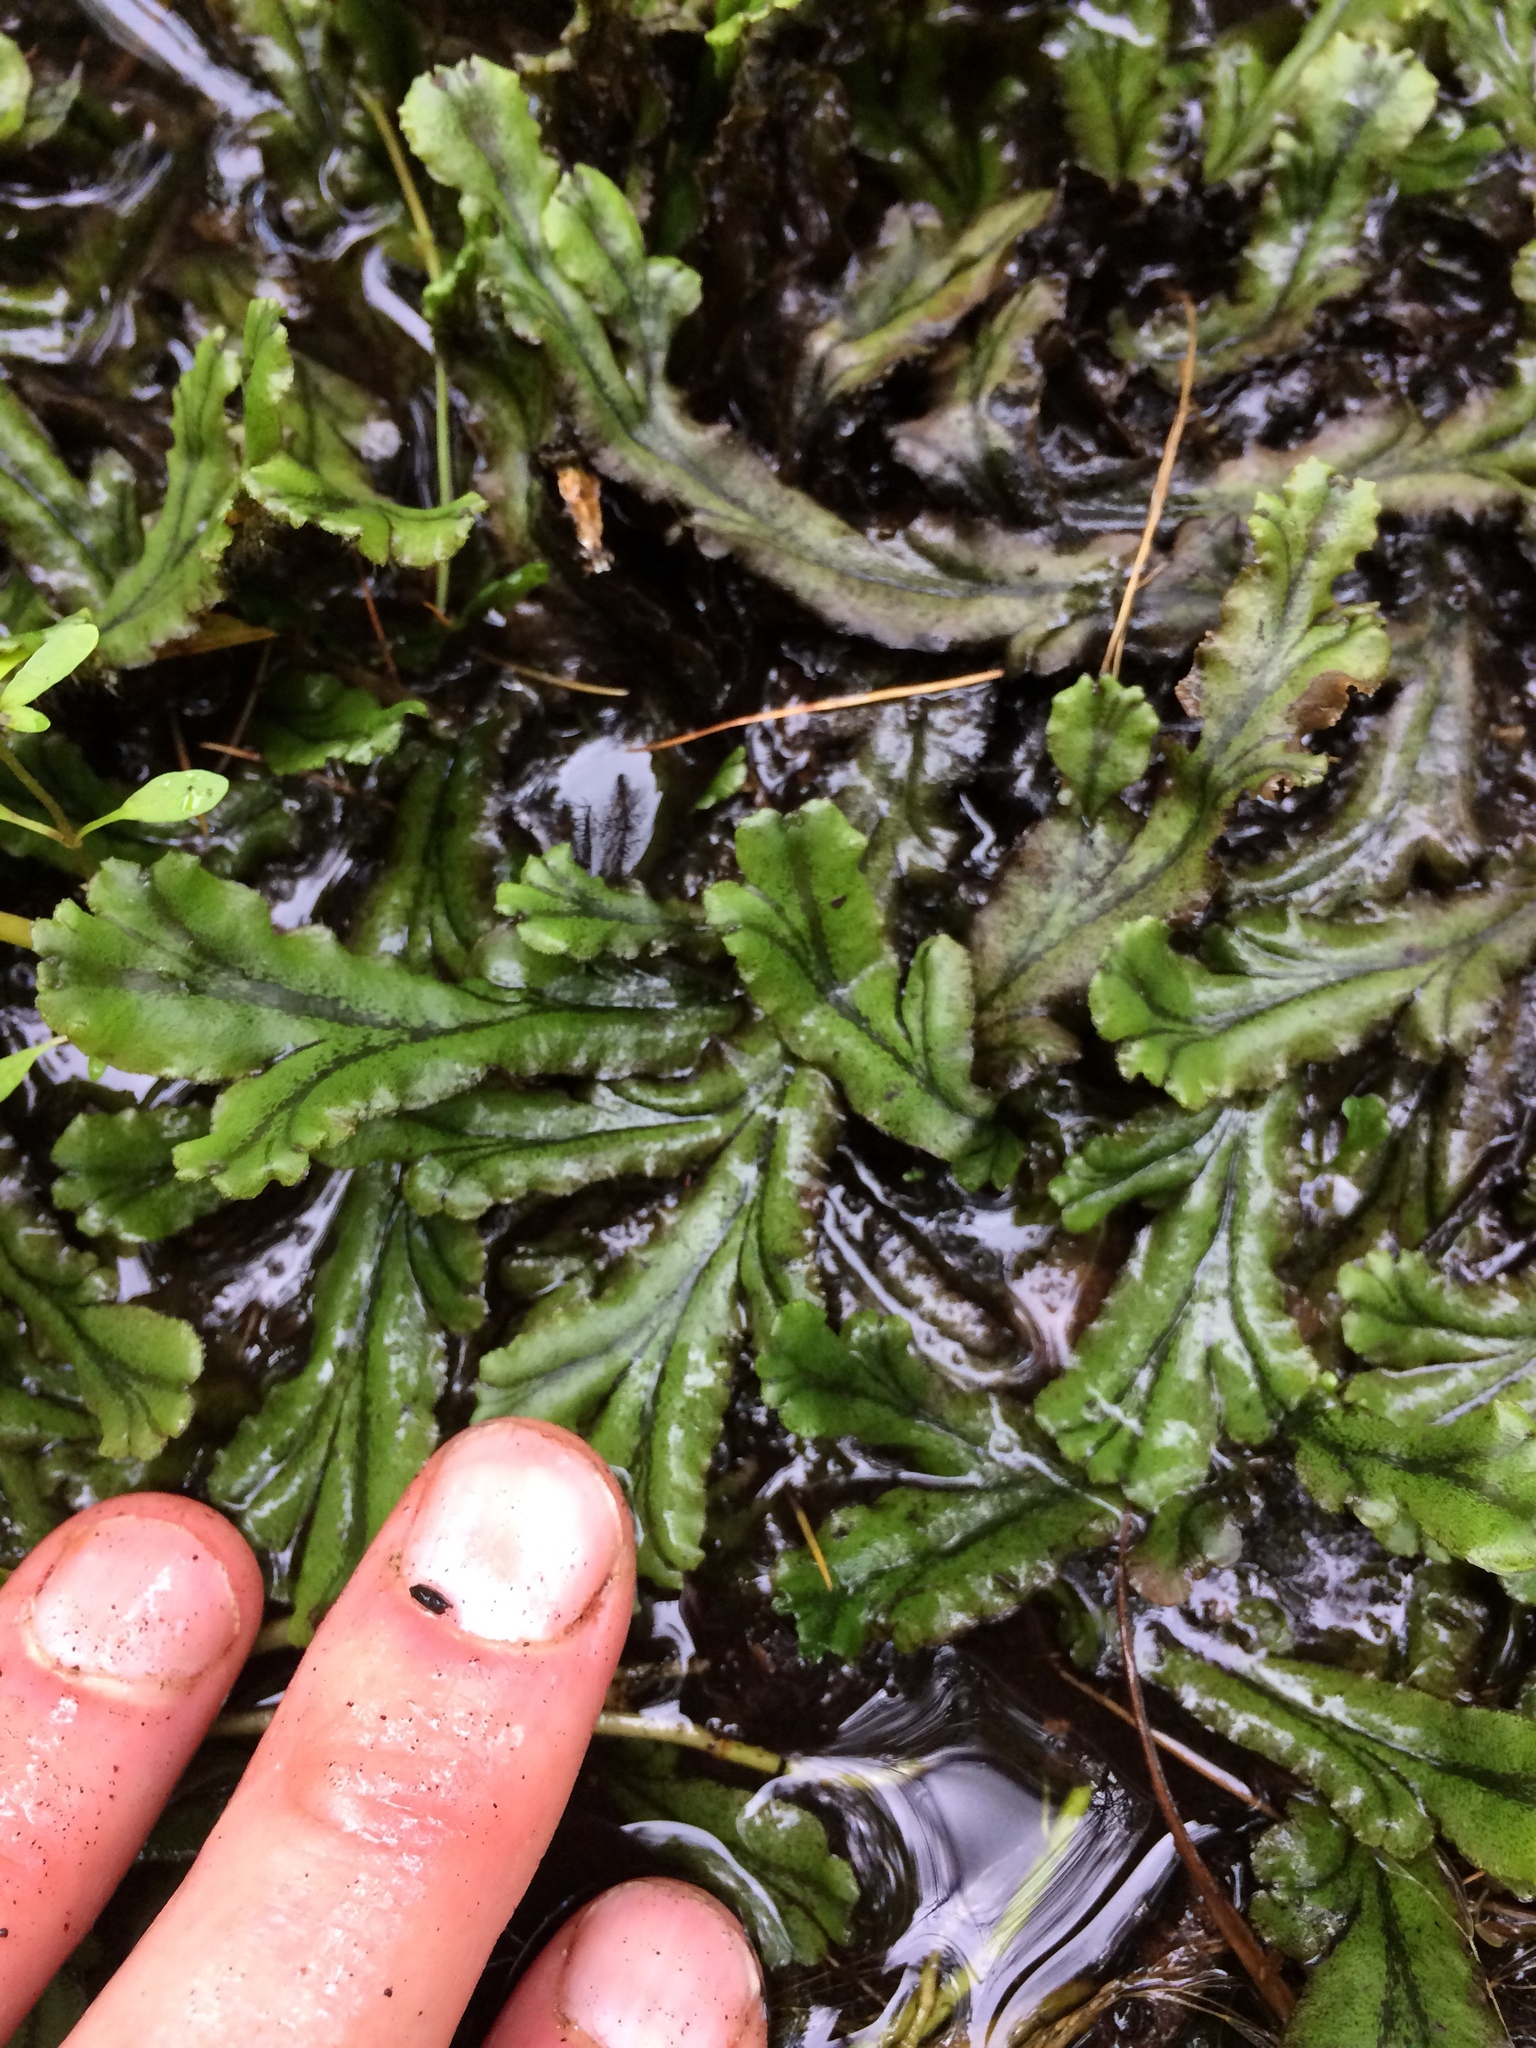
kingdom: Plantae
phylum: Marchantiophyta
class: Marchantiopsida
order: Marchantiales
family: Marchantiaceae
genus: Marchantia
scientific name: Marchantia polymorpha
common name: Common liverwort
